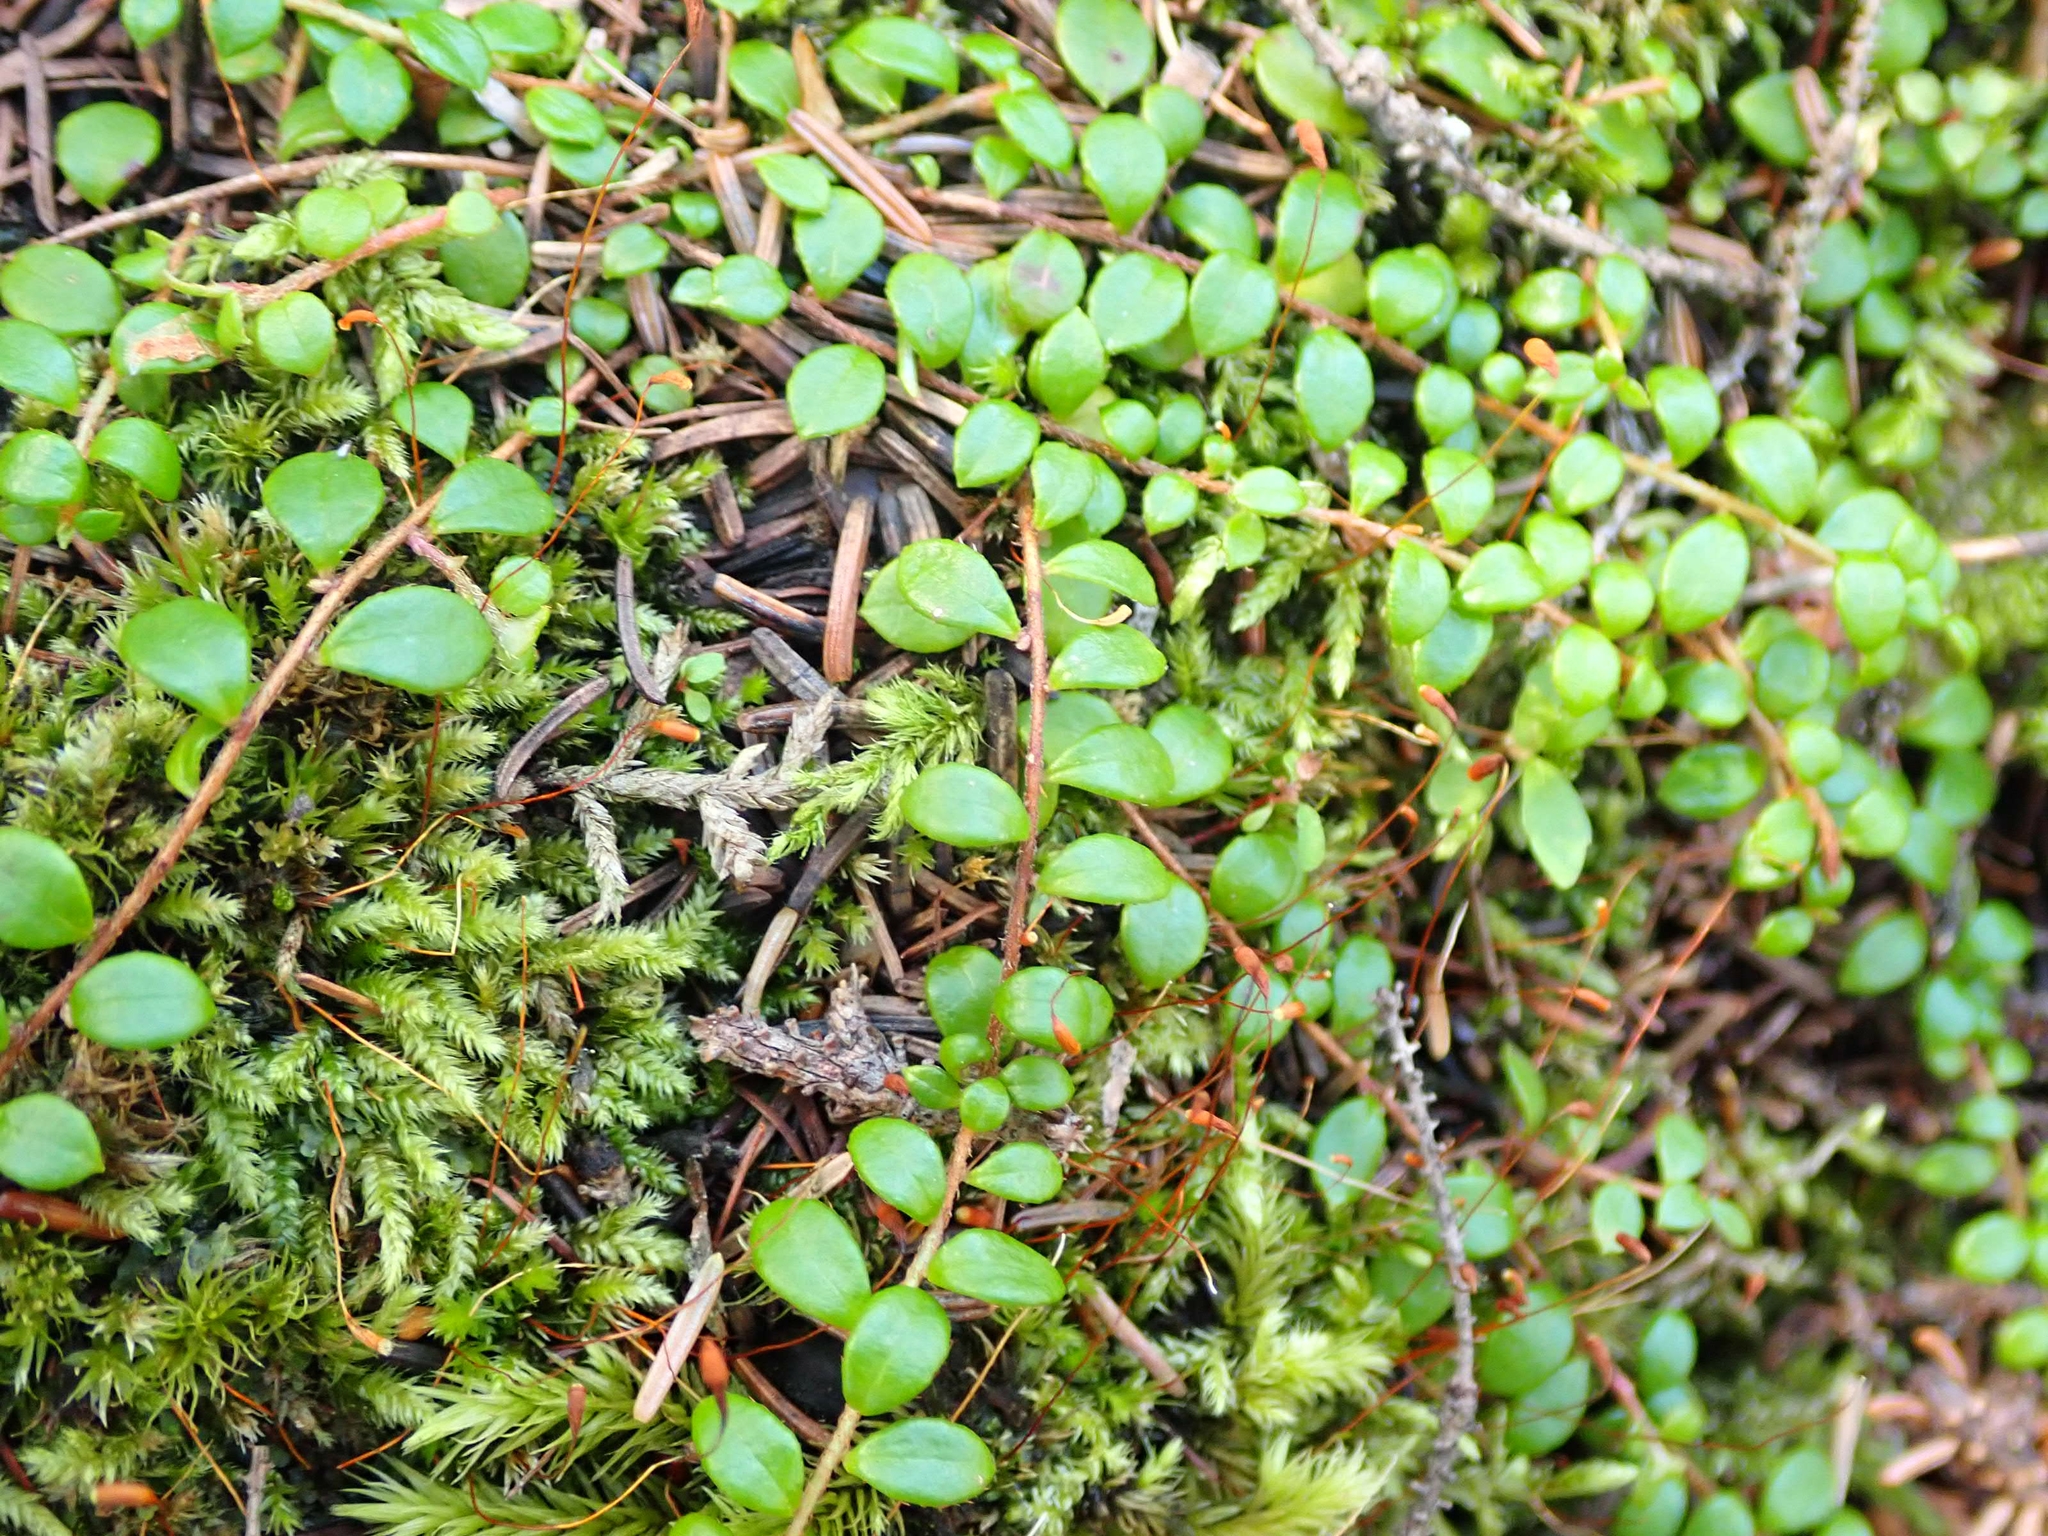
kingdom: Plantae
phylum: Tracheophyta
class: Magnoliopsida
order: Ericales
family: Ericaceae
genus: Gaultheria
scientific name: Gaultheria hispidula
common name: Cancer wintergreen
